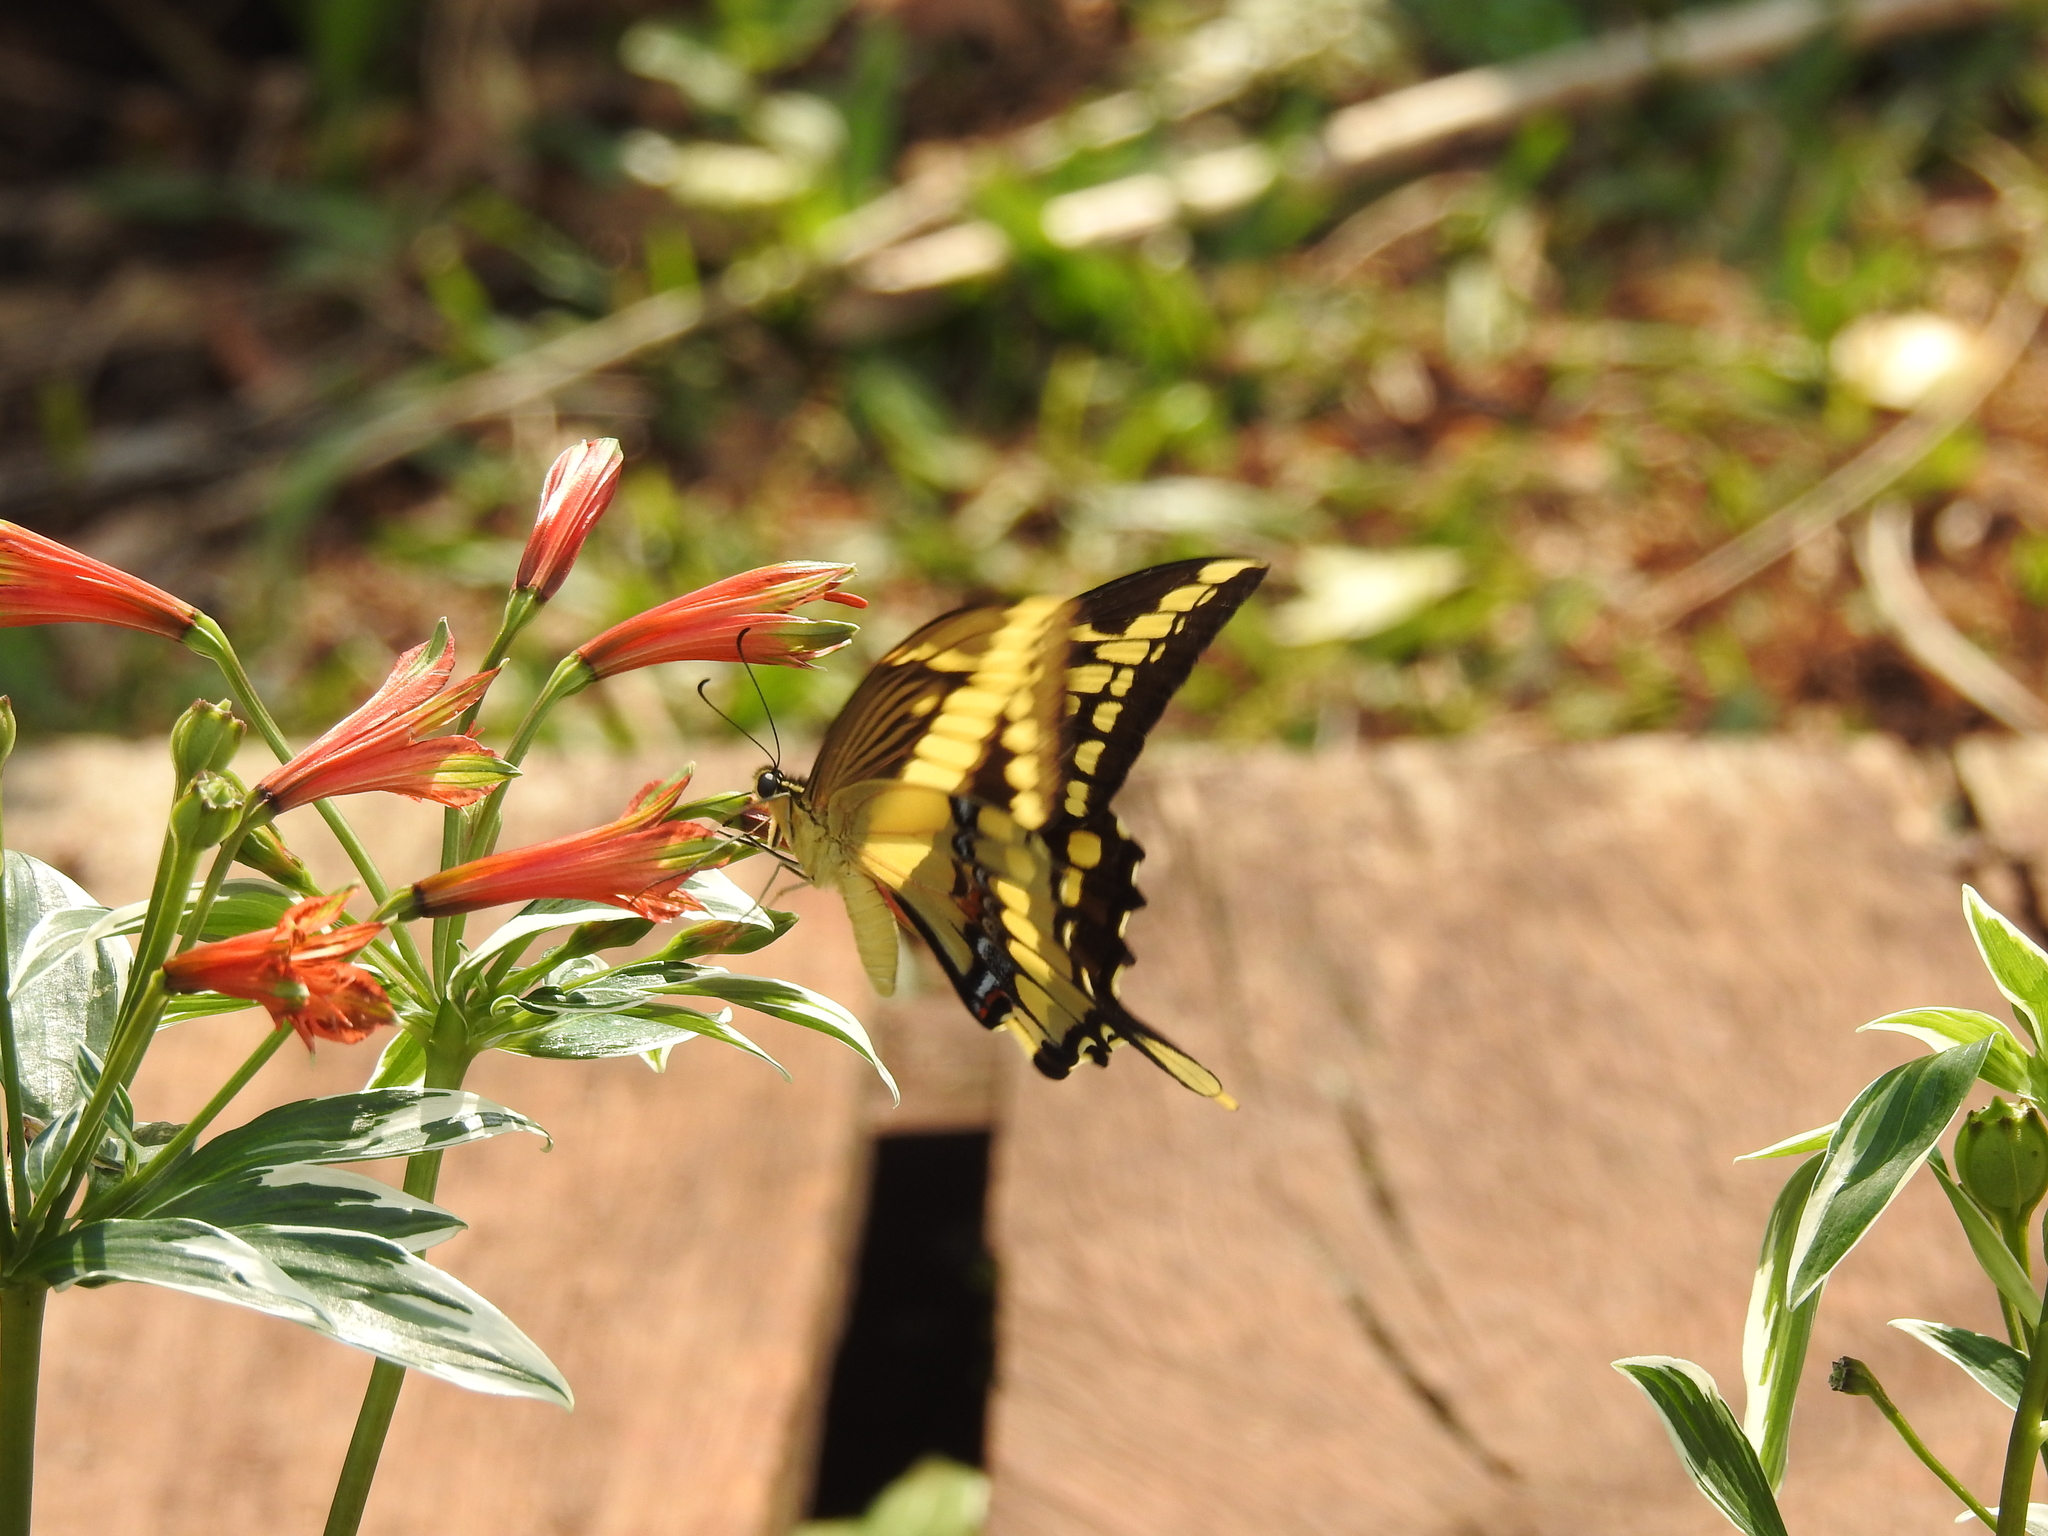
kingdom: Animalia
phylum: Arthropoda
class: Insecta
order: Lepidoptera
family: Papilionidae
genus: Papilio
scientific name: Papilio thoas
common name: King swallowtail
